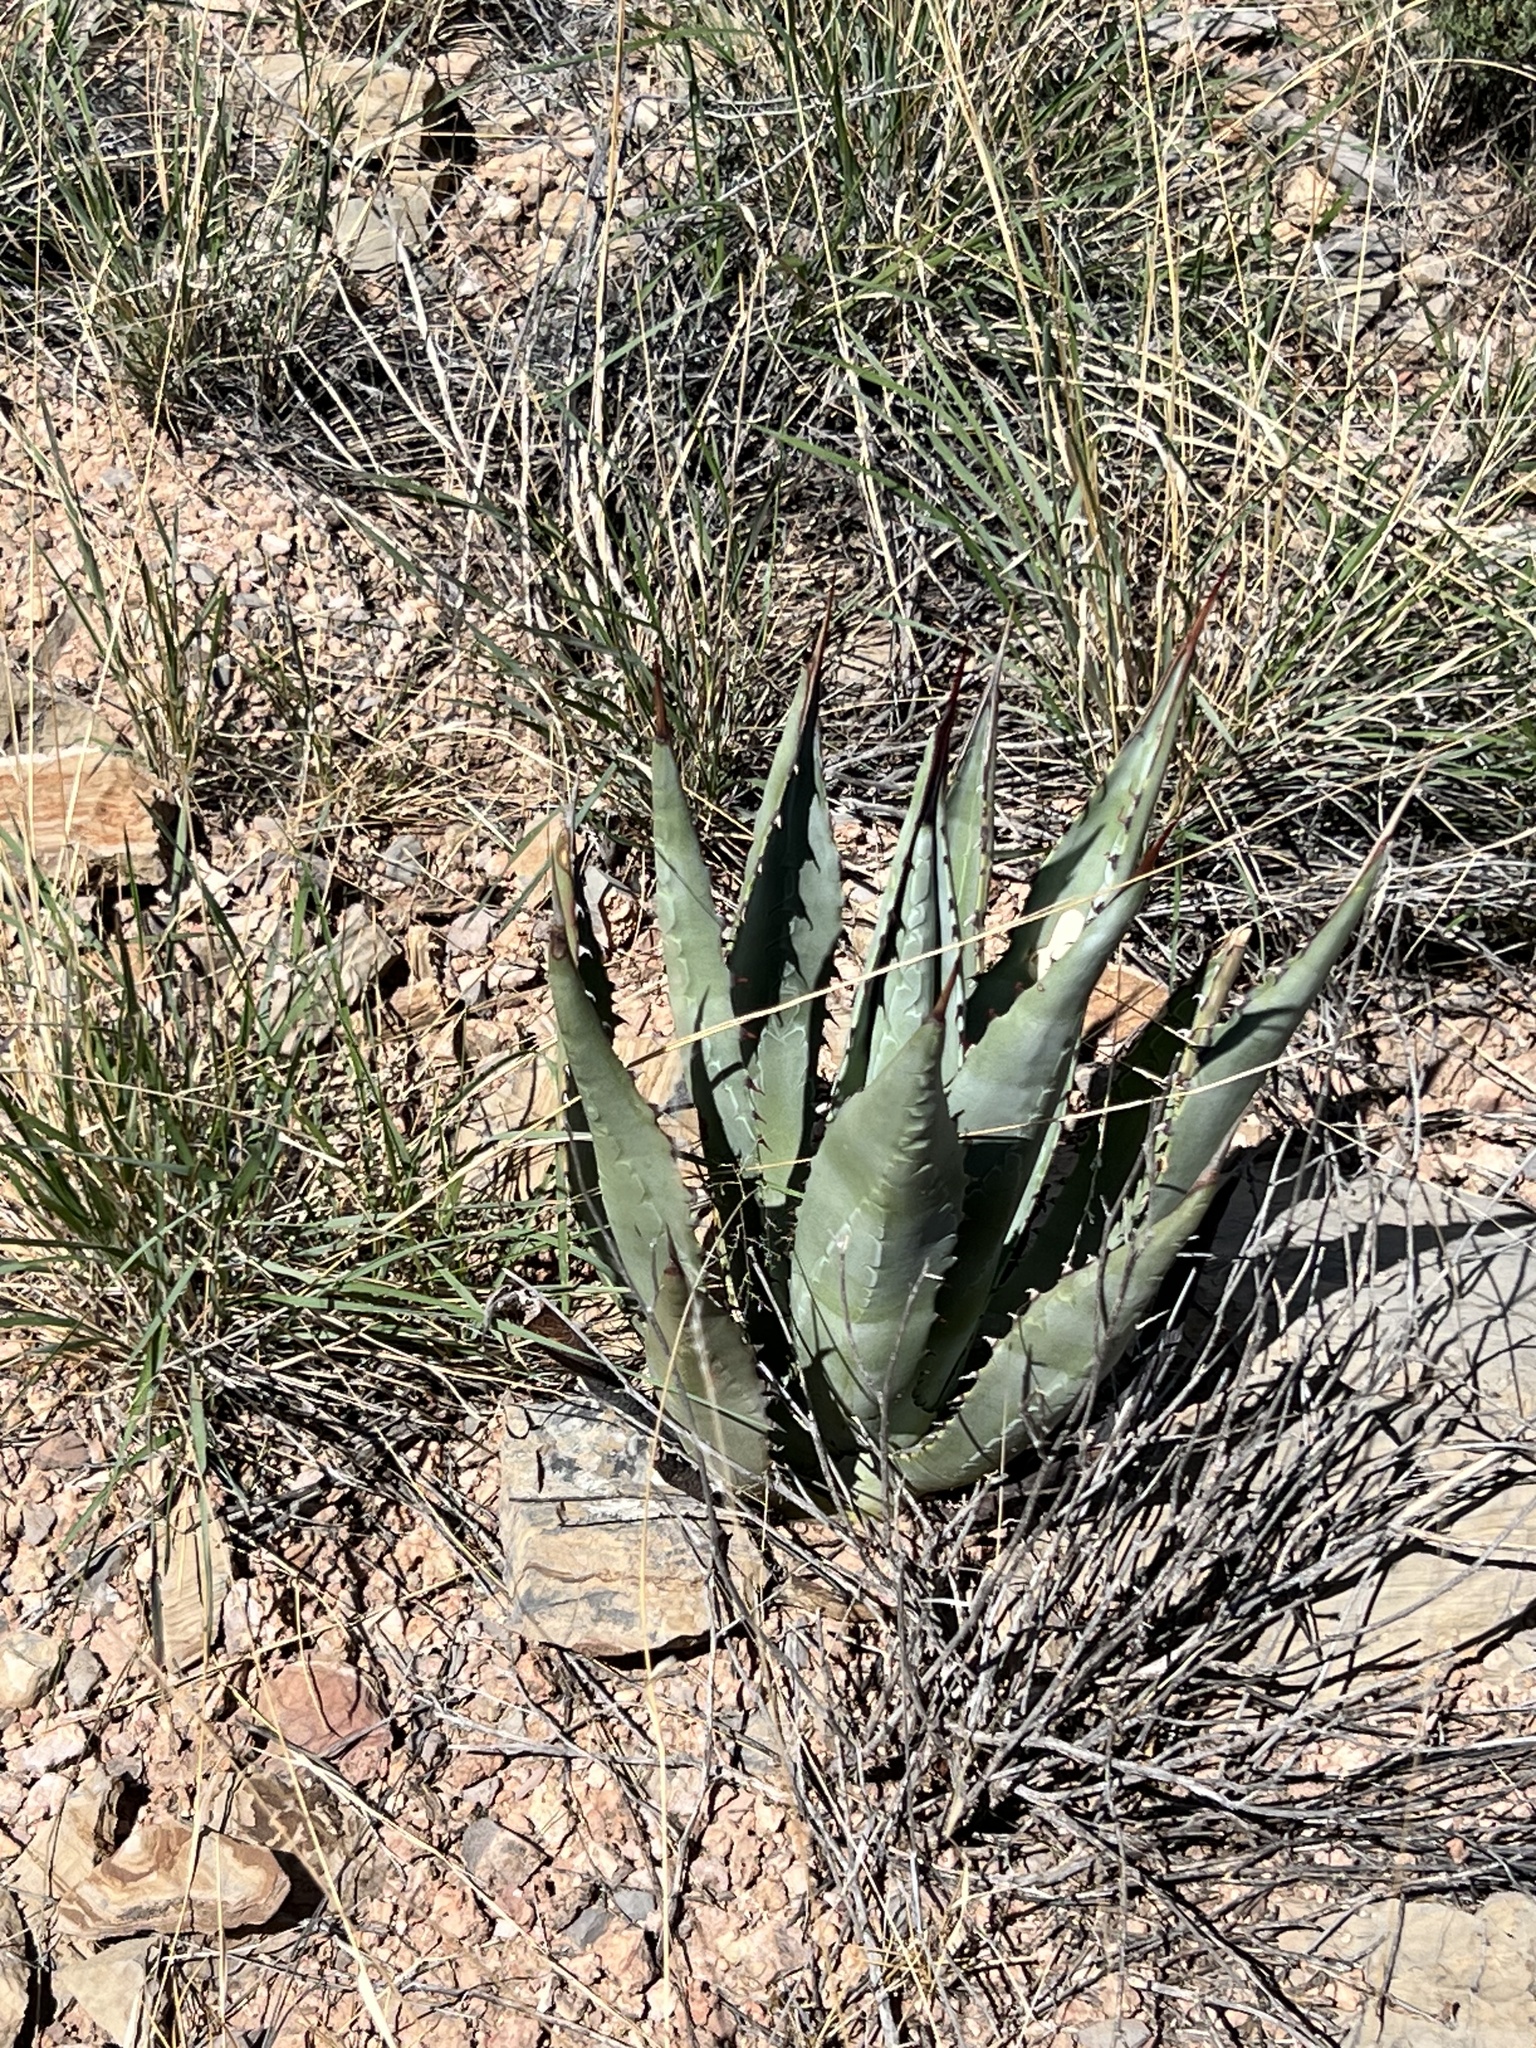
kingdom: Plantae
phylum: Tracheophyta
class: Liliopsida
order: Asparagales
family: Asparagaceae
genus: Agave
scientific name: Agave palmeri
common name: Palmer agave
